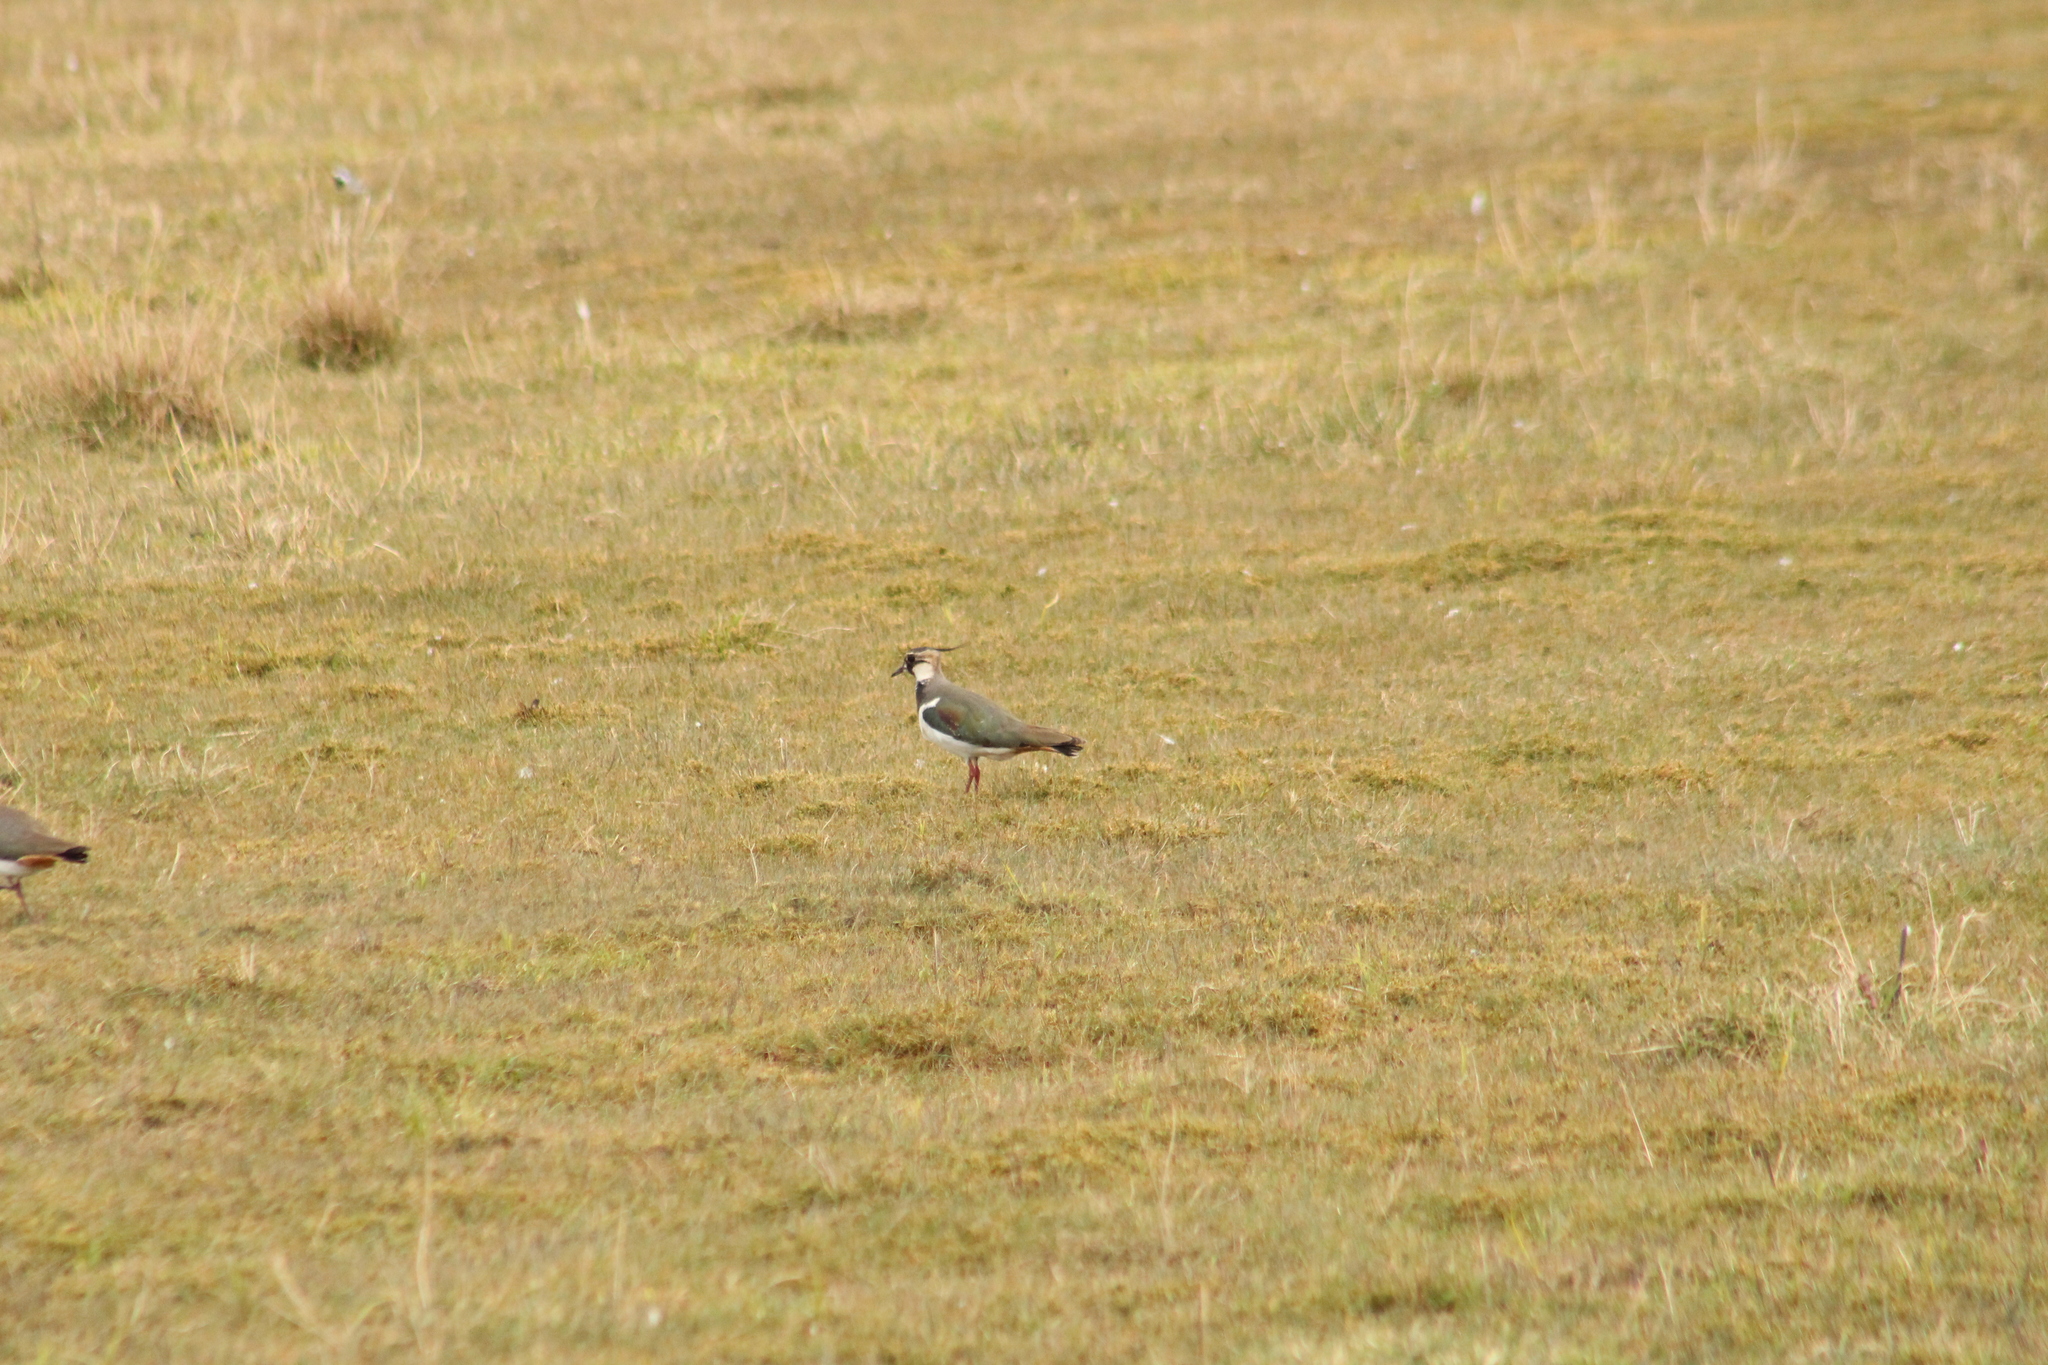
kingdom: Animalia
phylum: Chordata
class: Aves
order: Charadriiformes
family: Charadriidae
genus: Vanellus
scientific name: Vanellus vanellus
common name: Northern lapwing
